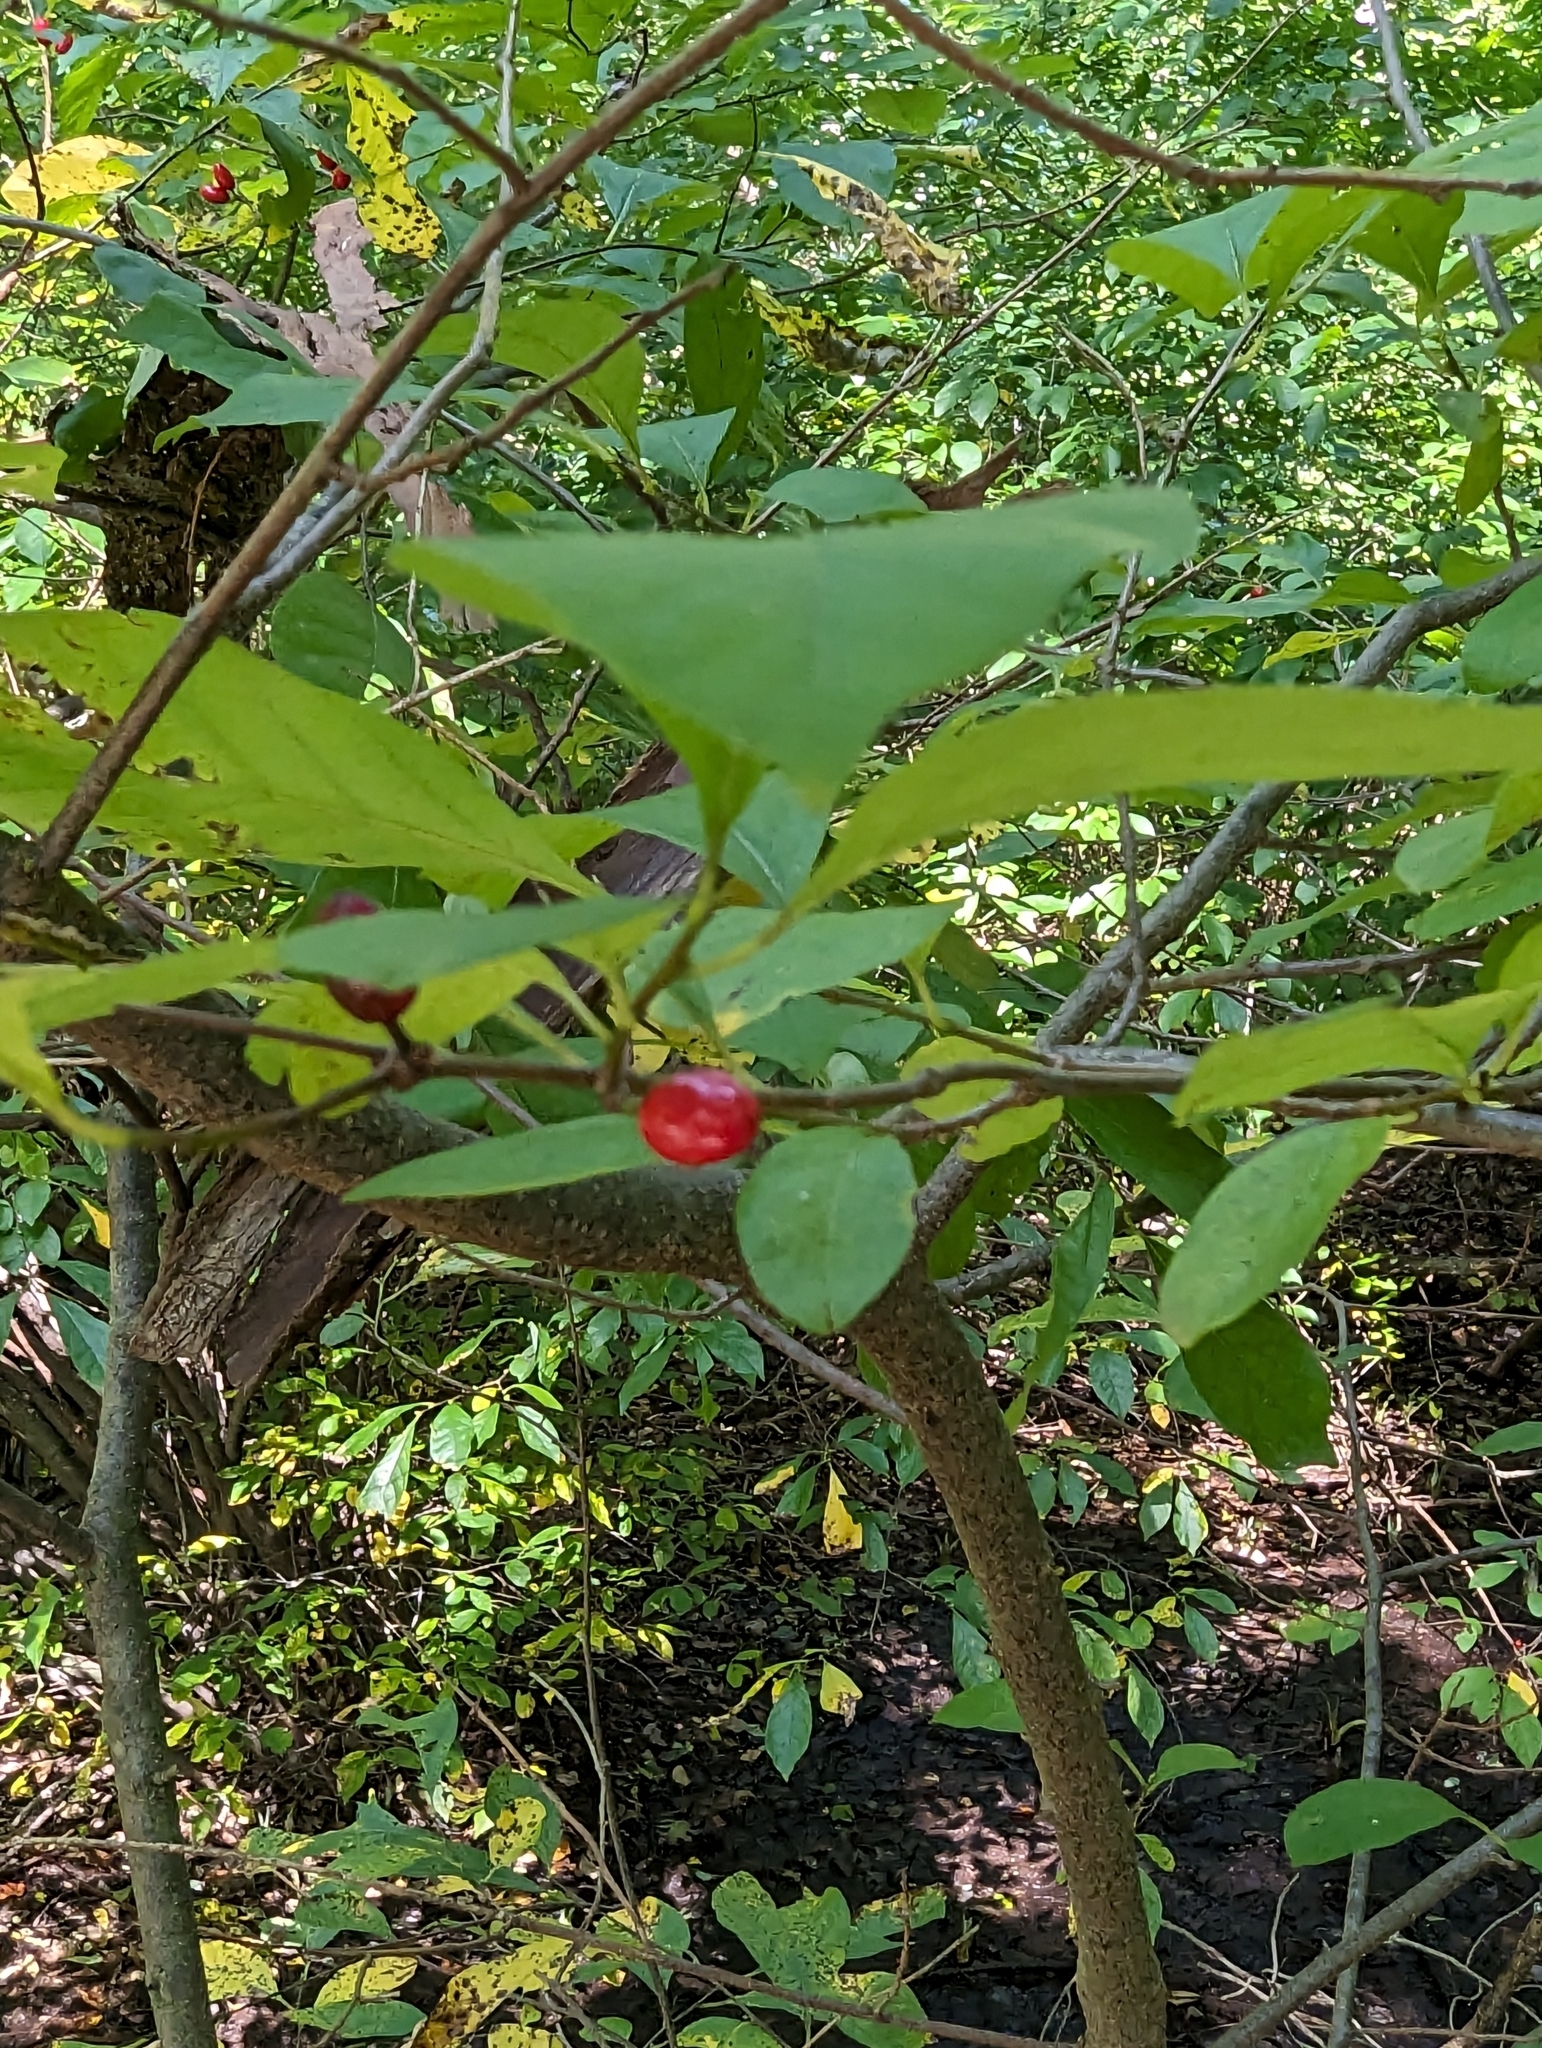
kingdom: Plantae
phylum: Tracheophyta
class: Magnoliopsida
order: Laurales
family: Lauraceae
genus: Lindera
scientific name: Lindera benzoin
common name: Spicebush
